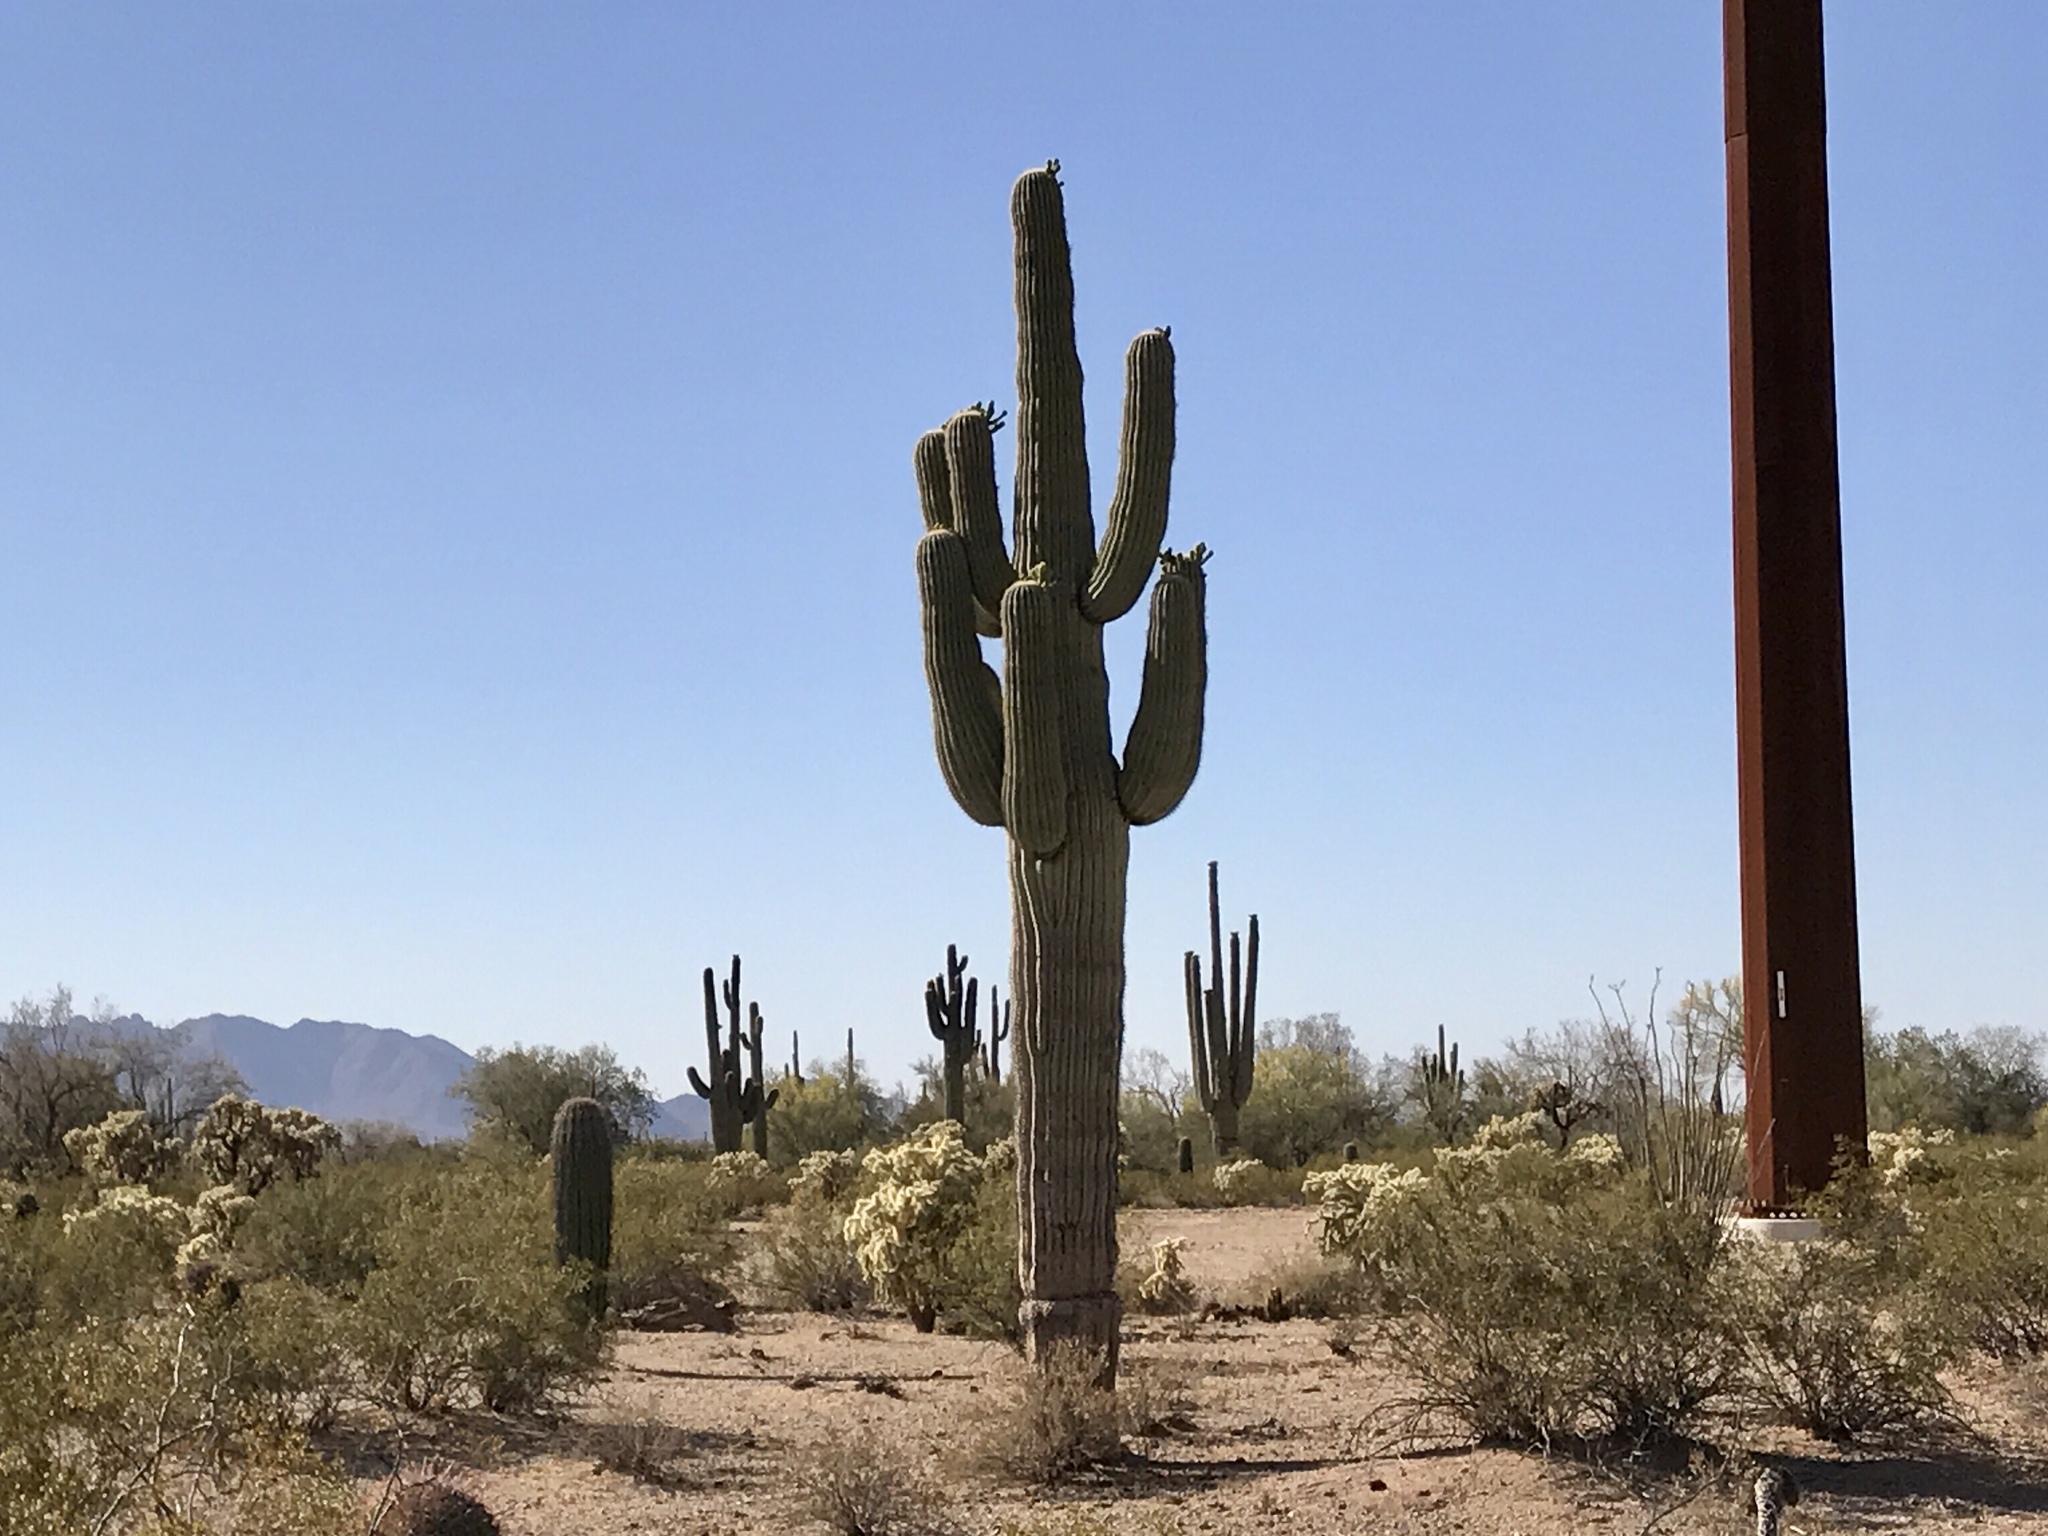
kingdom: Plantae
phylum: Tracheophyta
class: Magnoliopsida
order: Caryophyllales
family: Cactaceae
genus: Carnegiea
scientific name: Carnegiea gigantea
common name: Saguaro
